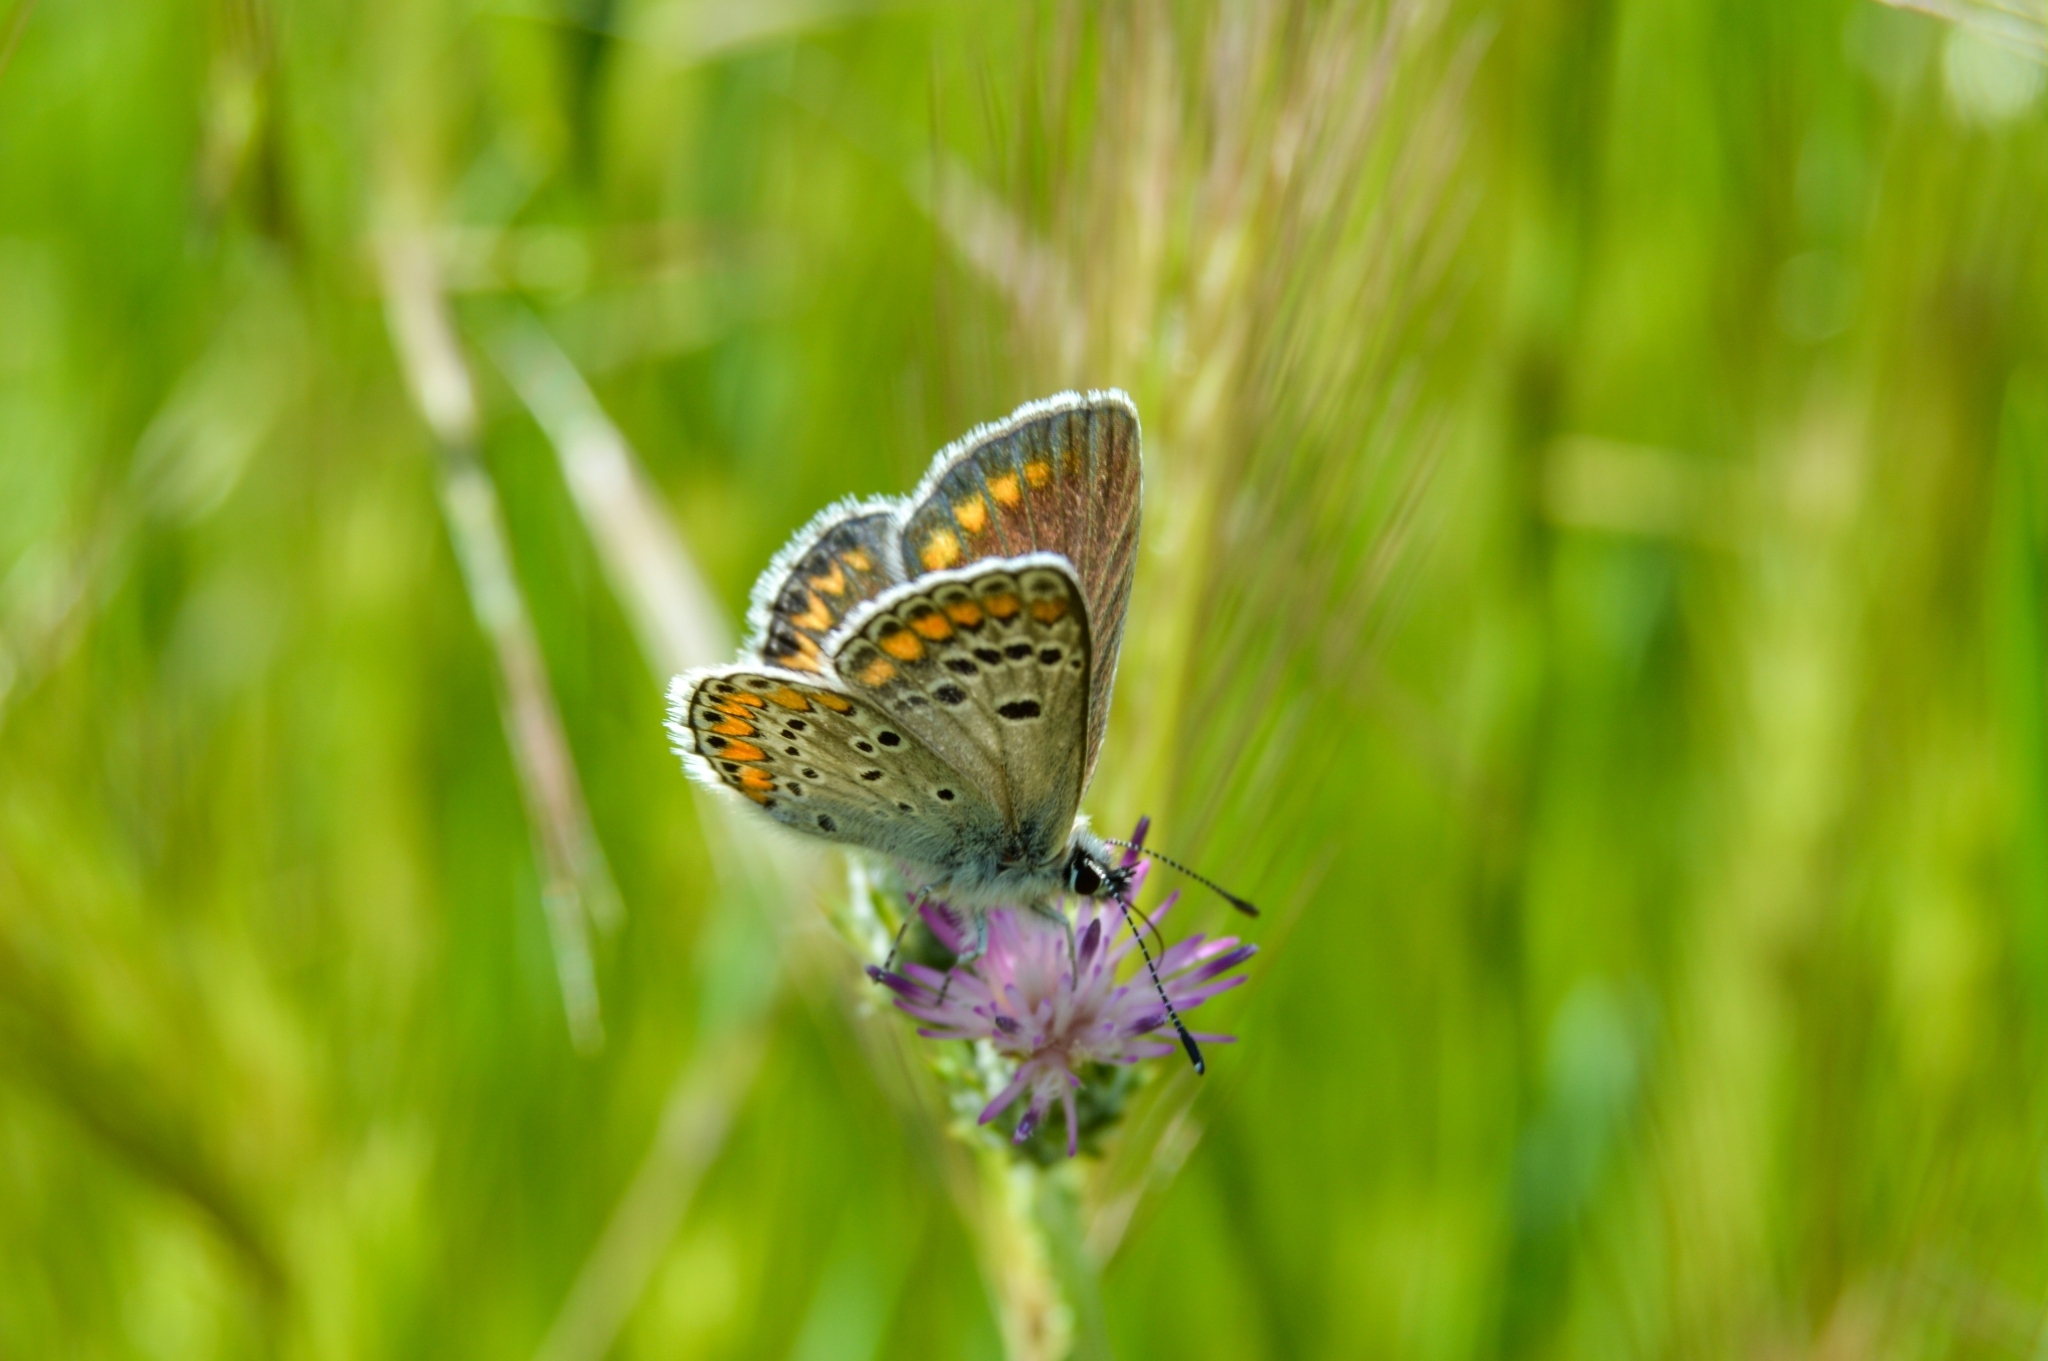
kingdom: Animalia
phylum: Arthropoda
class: Insecta
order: Lepidoptera
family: Lycaenidae
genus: Aricia
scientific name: Aricia agestis
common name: Brown argus
